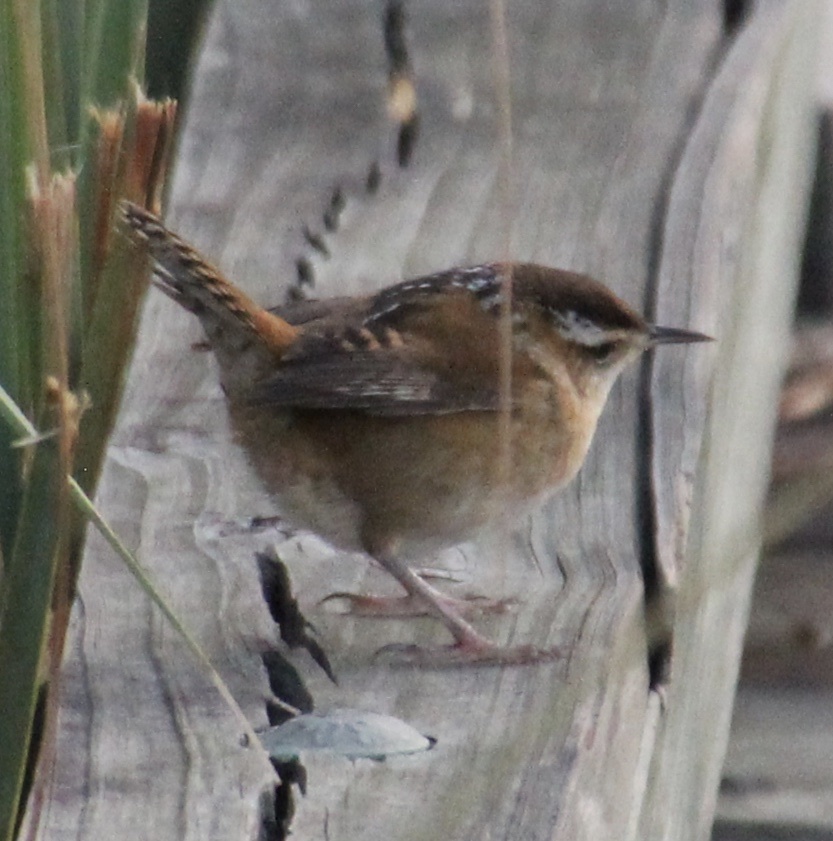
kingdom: Animalia
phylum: Chordata
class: Aves
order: Passeriformes
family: Troglodytidae
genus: Cistothorus
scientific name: Cistothorus palustris
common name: Marsh wren
